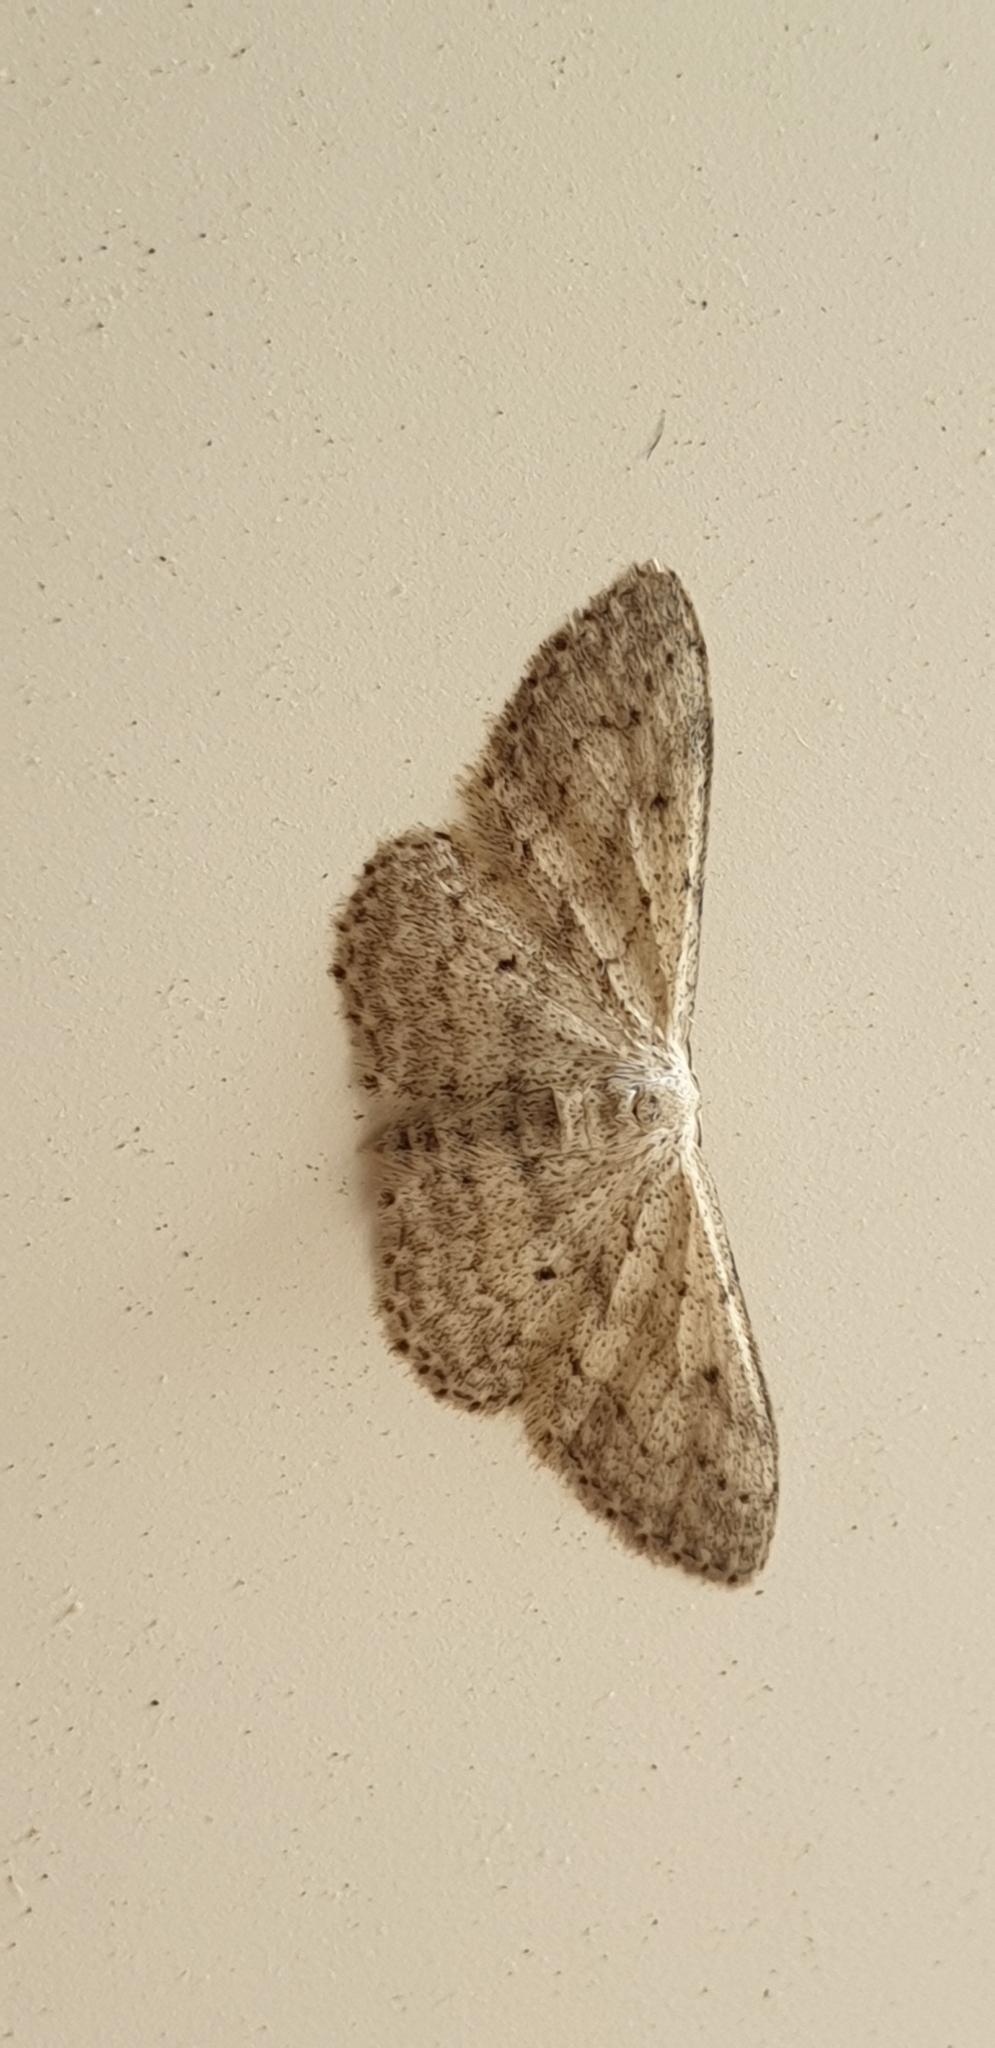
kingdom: Animalia
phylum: Arthropoda
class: Insecta
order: Lepidoptera
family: Geometridae
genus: Idaea
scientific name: Idaea seriata
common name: Small dusty wave
